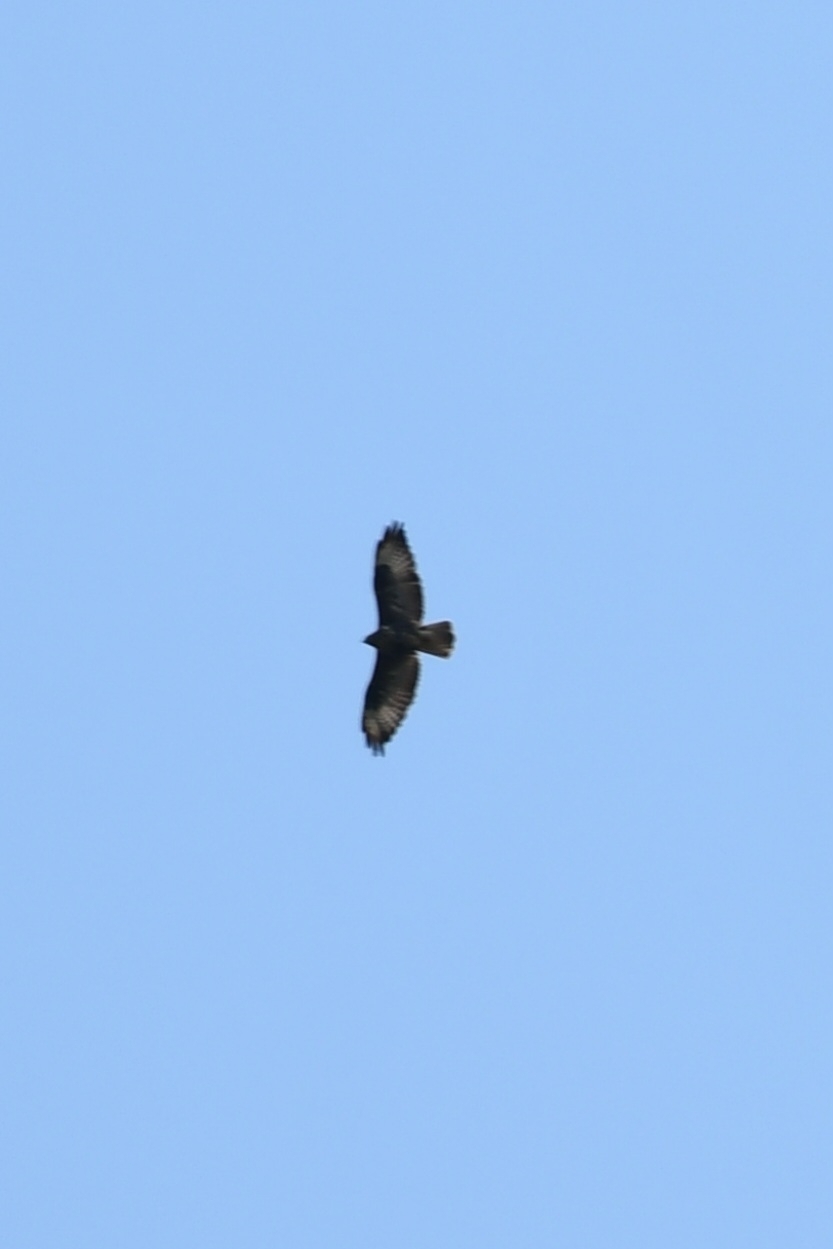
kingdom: Animalia
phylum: Chordata
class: Aves
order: Accipitriformes
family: Accipitridae
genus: Buteo
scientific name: Buteo buteo
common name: Common buzzard
